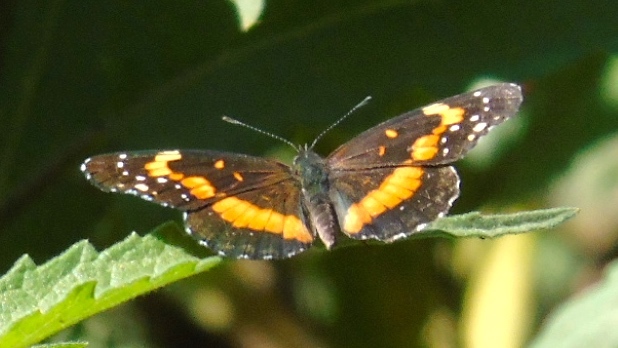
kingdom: Animalia
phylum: Arthropoda
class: Insecta
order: Lepidoptera
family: Nymphalidae
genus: Chlosyne
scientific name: Chlosyne lacinia
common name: Bordered patch
